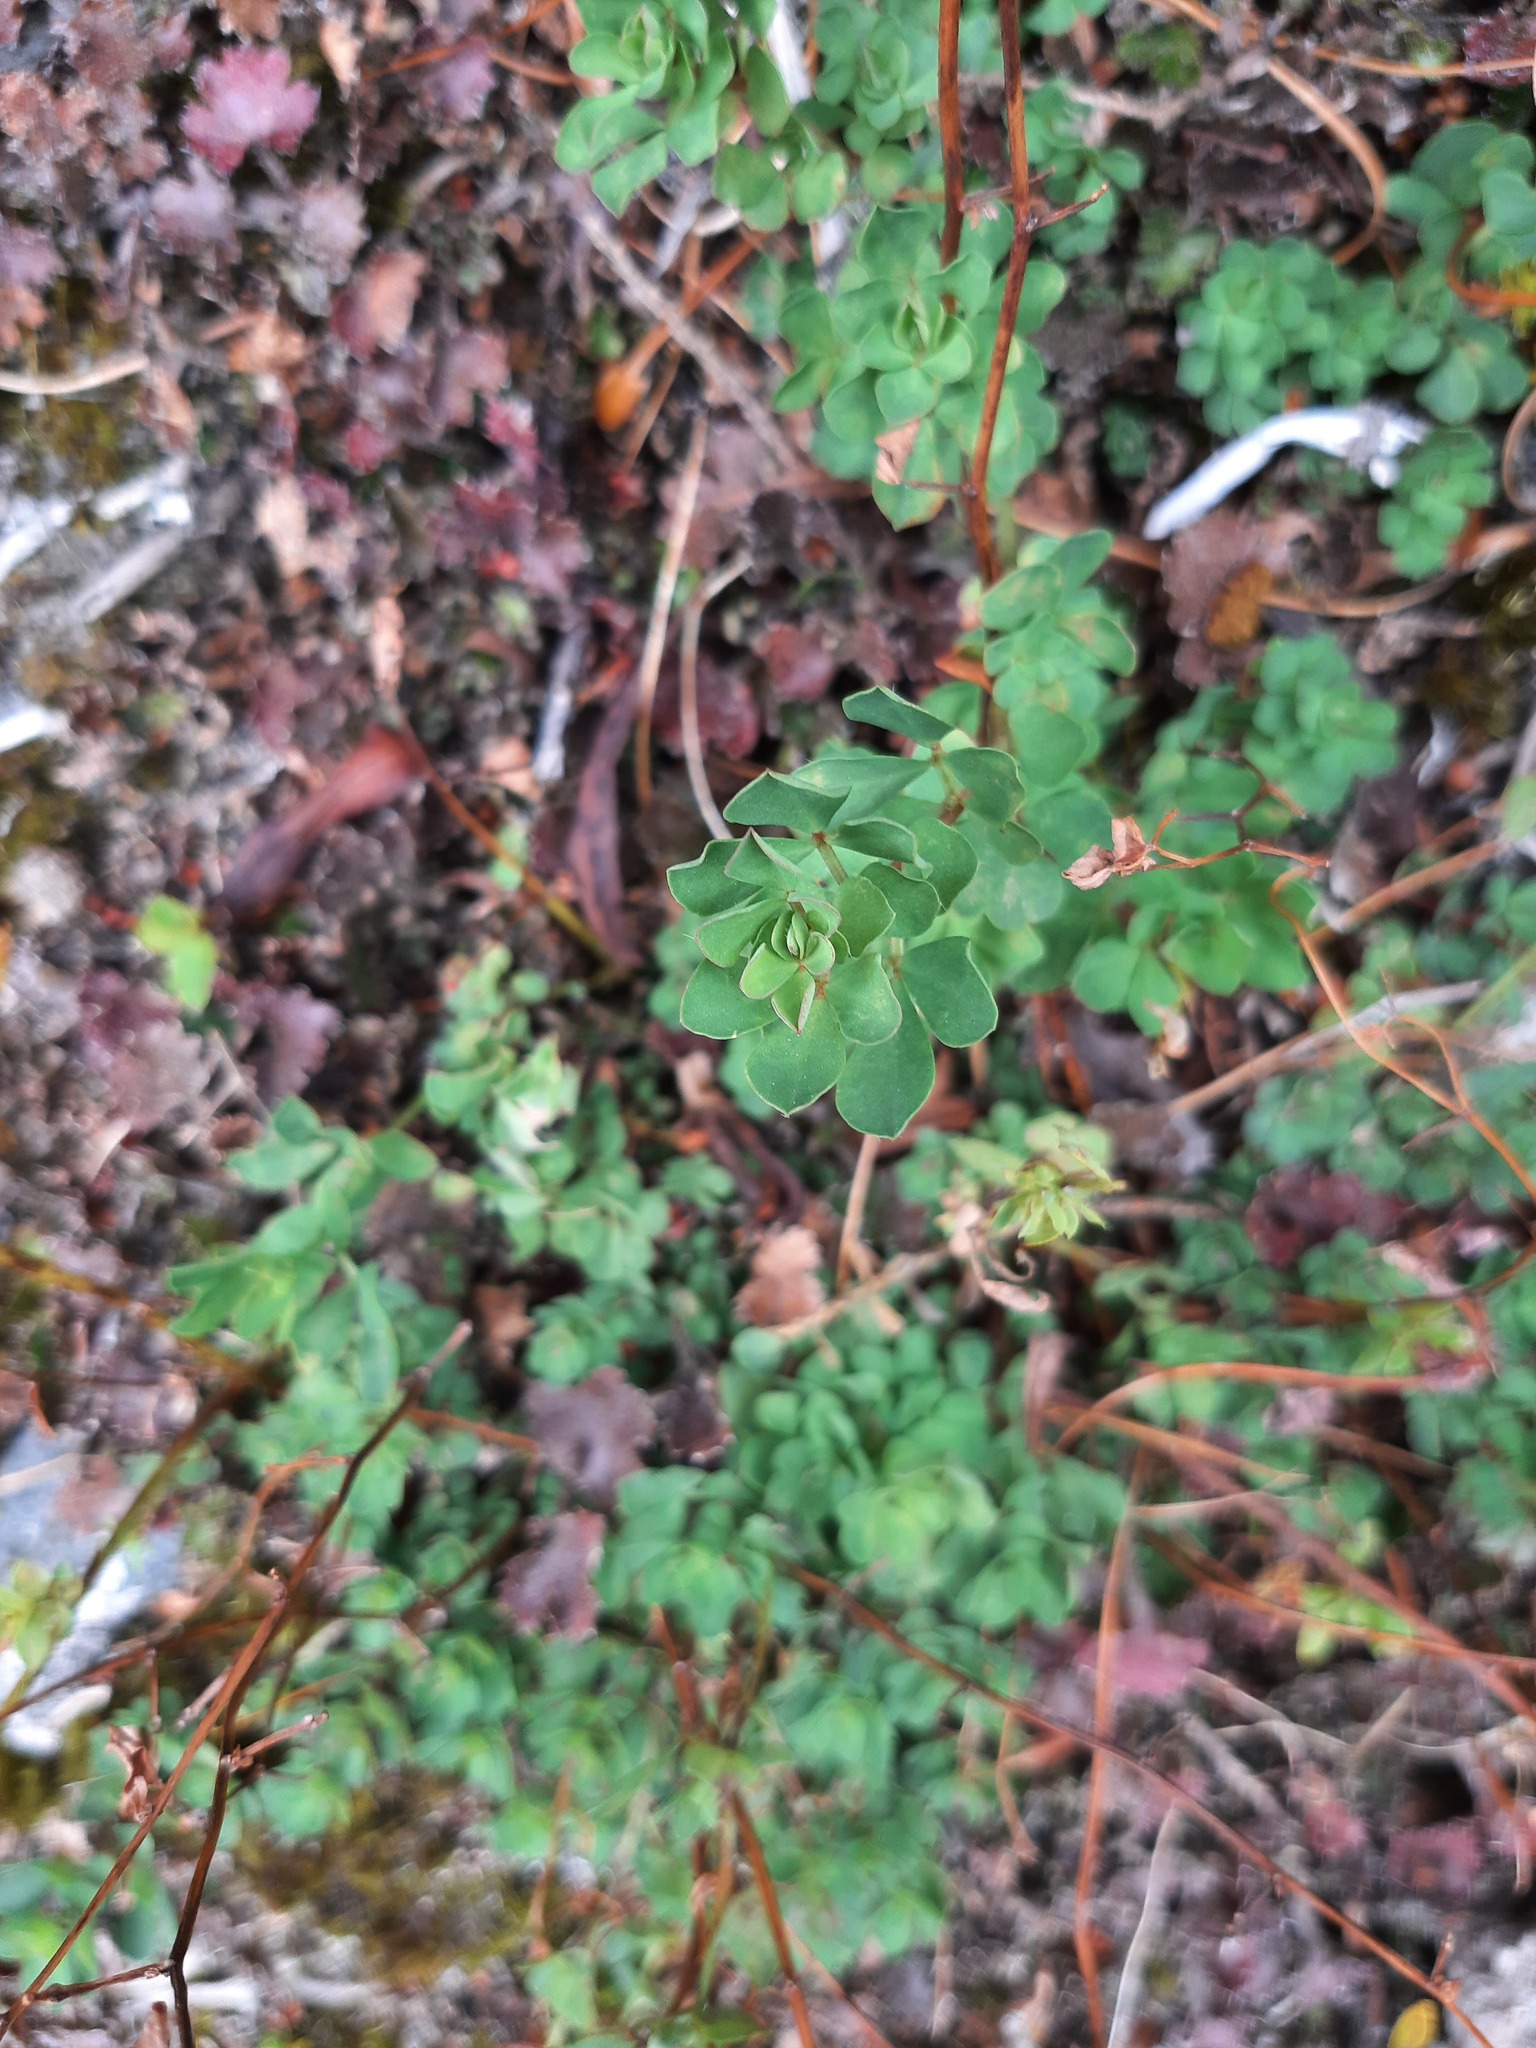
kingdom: Plantae
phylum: Tracheophyta
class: Magnoliopsida
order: Fabales
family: Fabaceae
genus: Lotus
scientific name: Lotus pedunculatus
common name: Greater birdsfoot-trefoil
